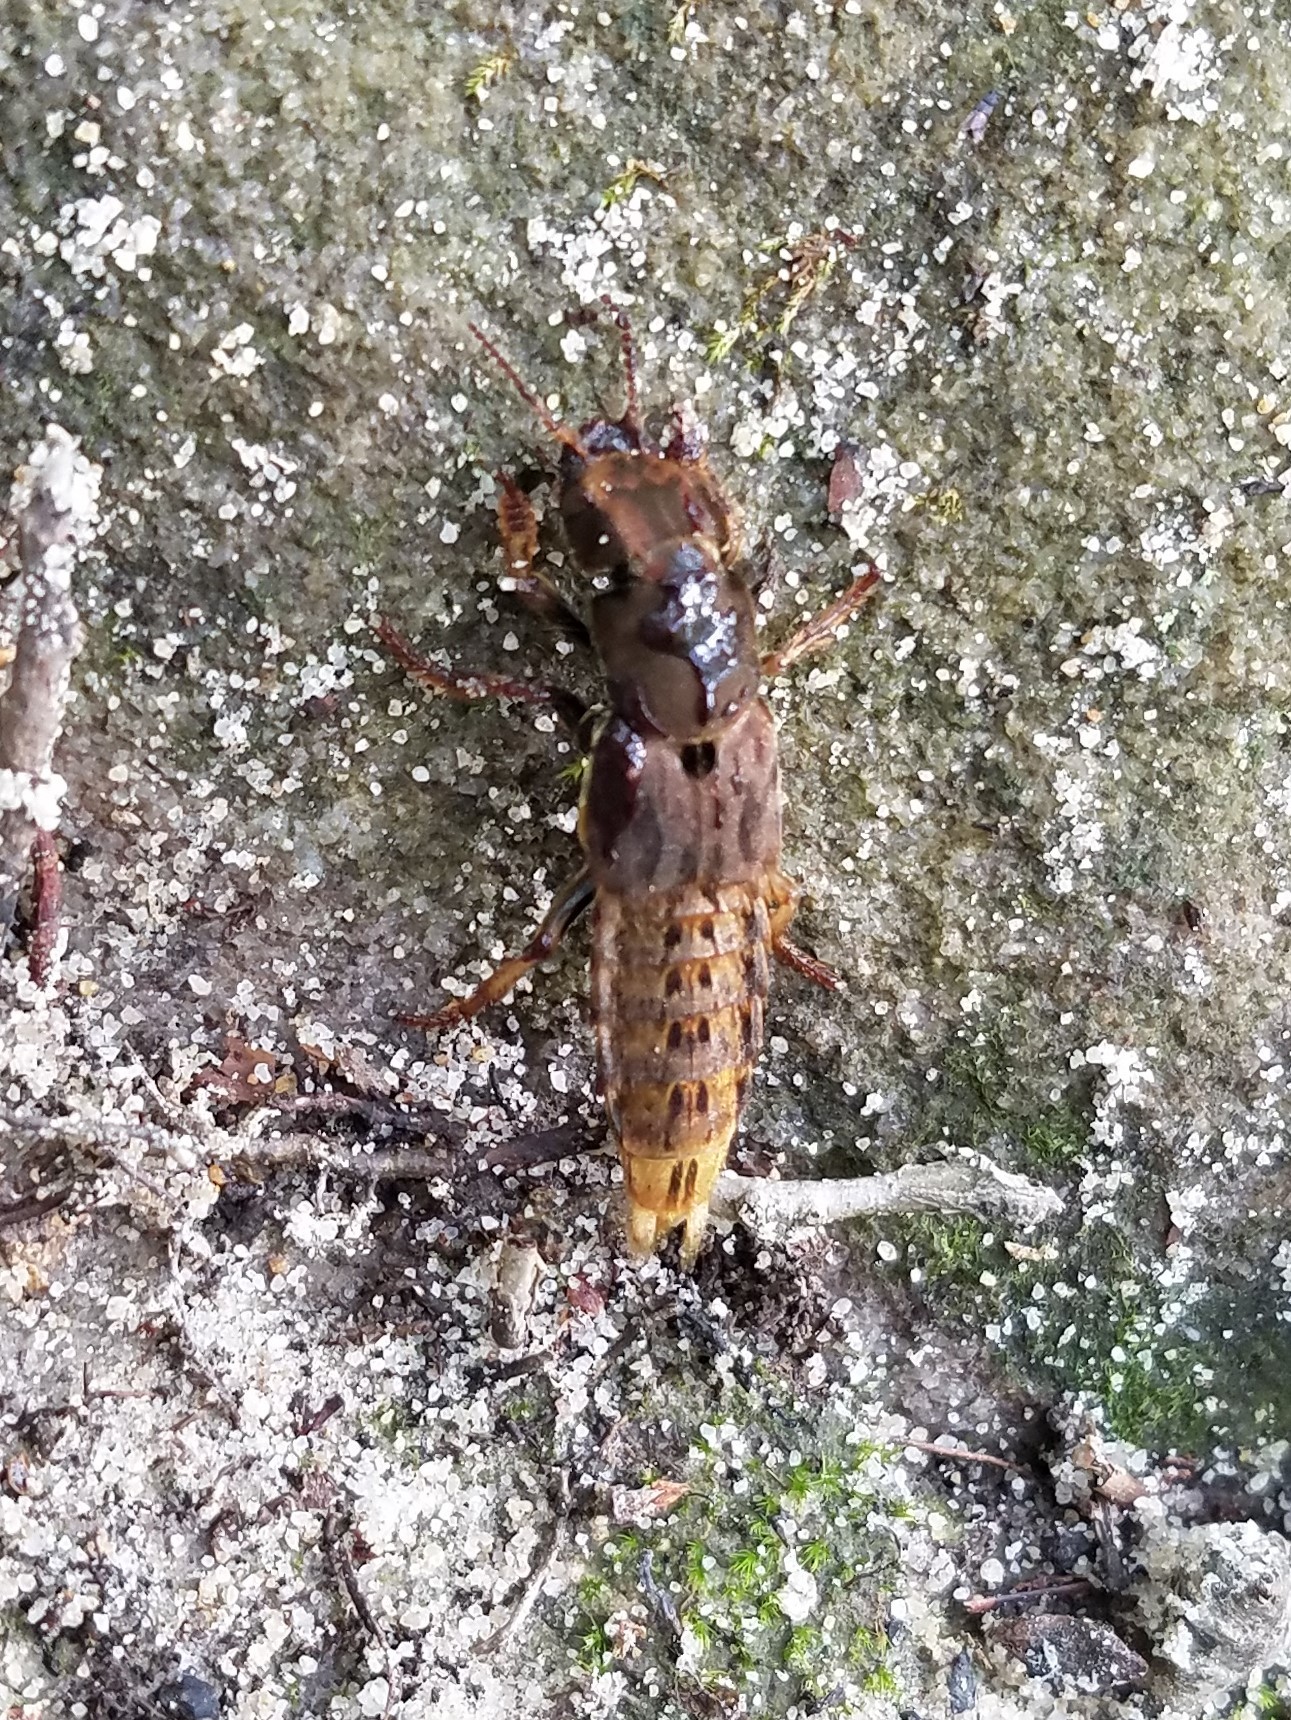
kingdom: Animalia
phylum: Arthropoda
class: Insecta
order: Coleoptera
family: Staphylinidae
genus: Platydracus
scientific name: Platydracus maculosus
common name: Brown rove beetle
